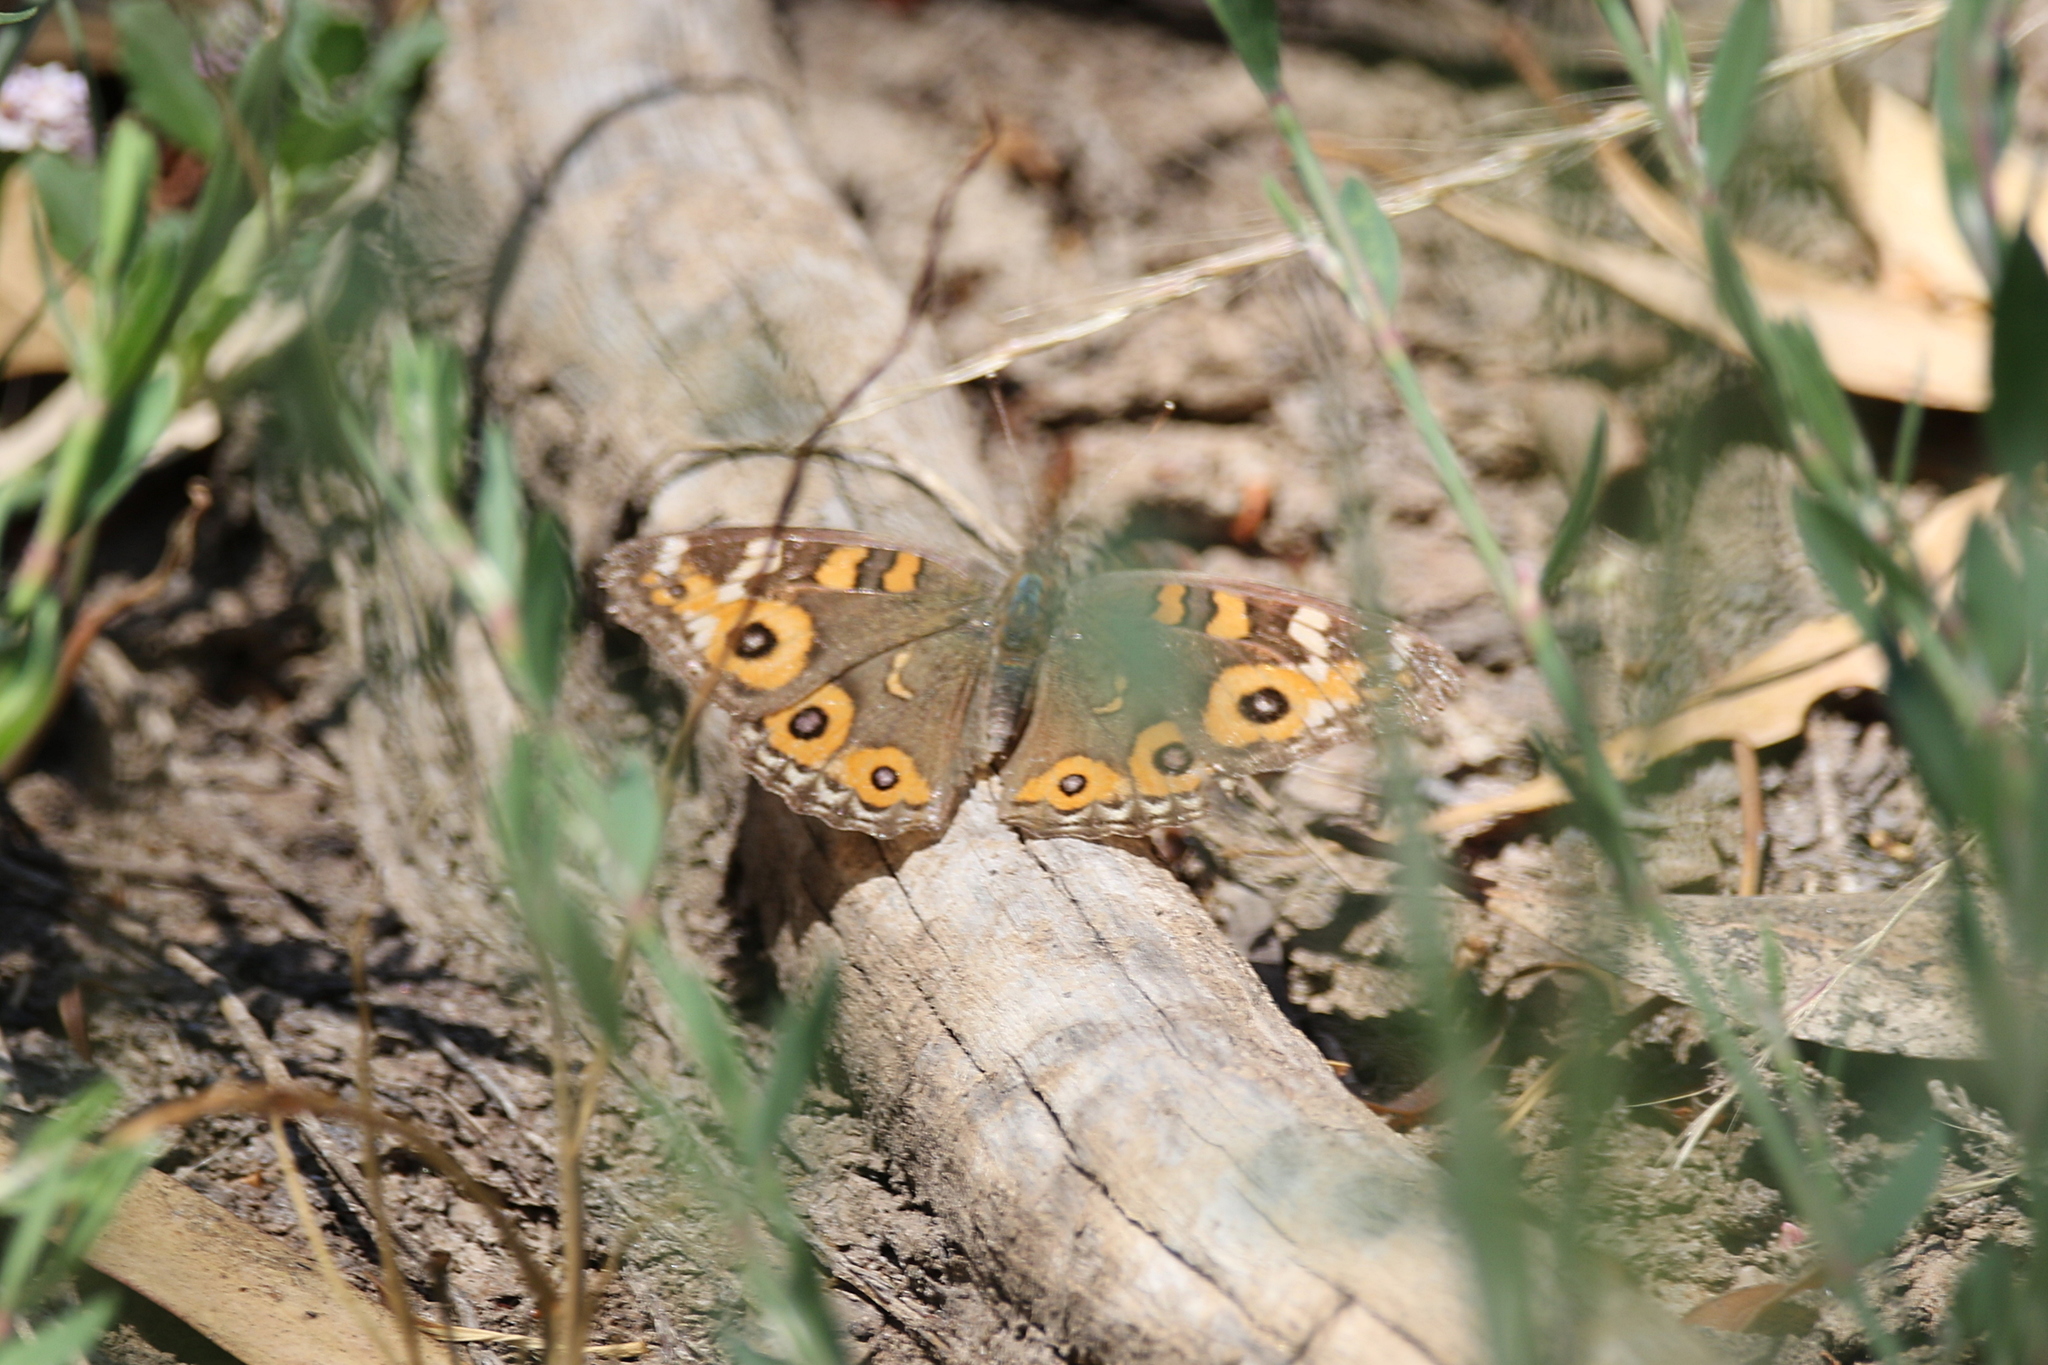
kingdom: Animalia
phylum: Arthropoda
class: Insecta
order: Lepidoptera
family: Nymphalidae
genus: Junonia
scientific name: Junonia villida
